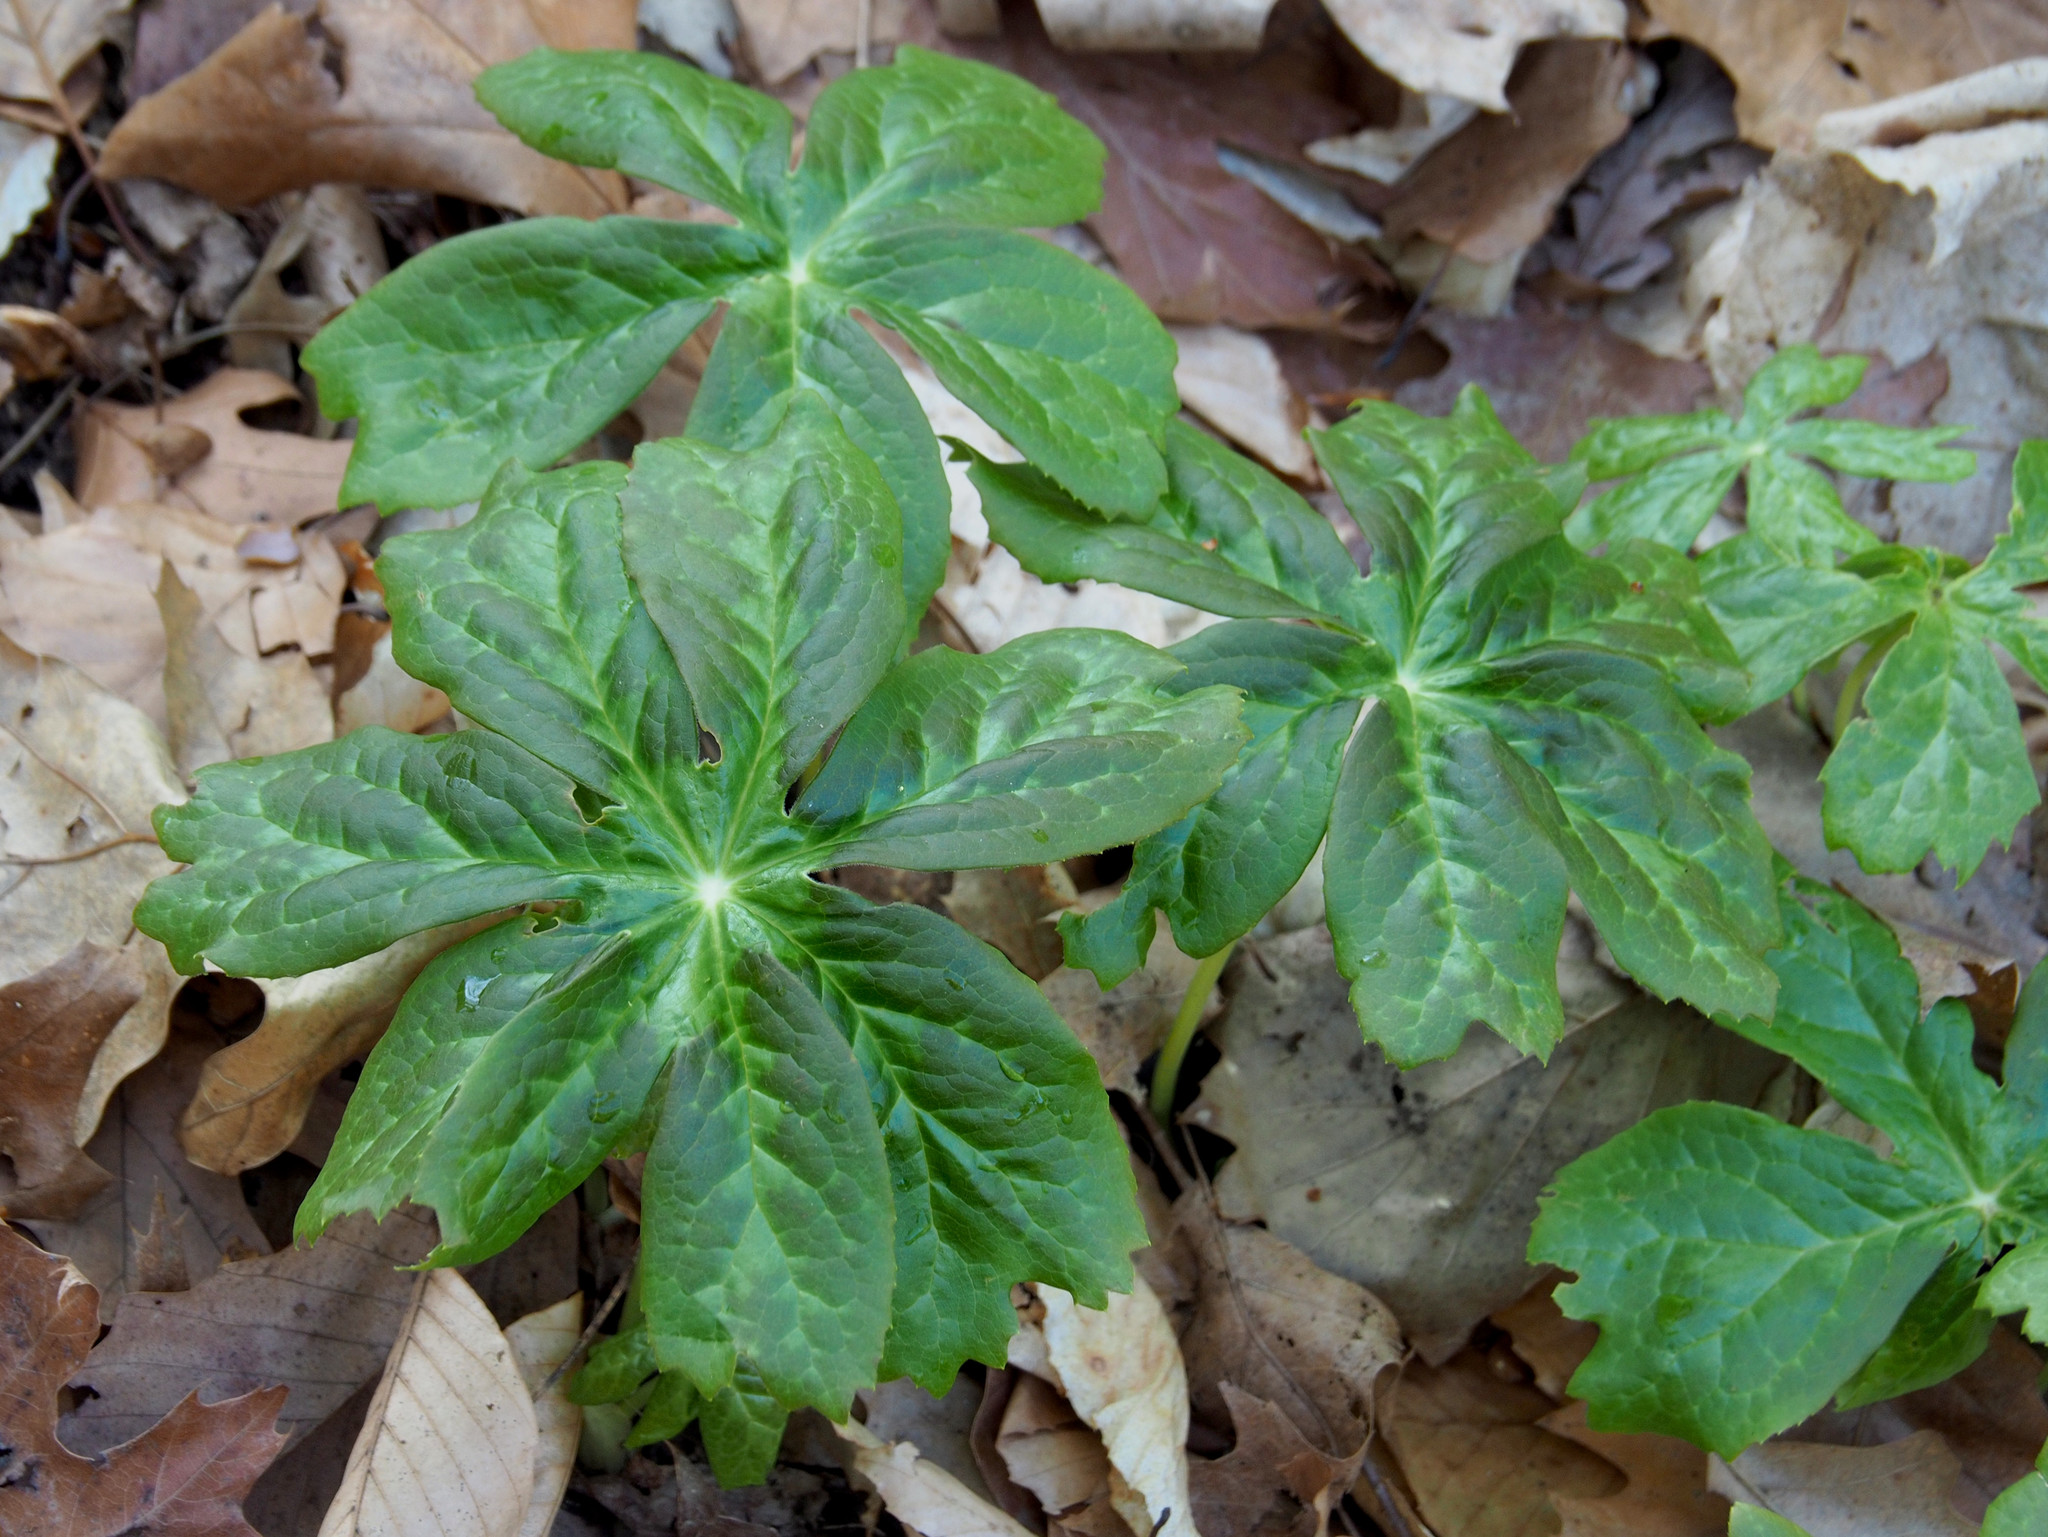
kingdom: Plantae
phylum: Tracheophyta
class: Magnoliopsida
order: Ranunculales
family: Berberidaceae
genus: Podophyllum
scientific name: Podophyllum peltatum
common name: Wild mandrake
